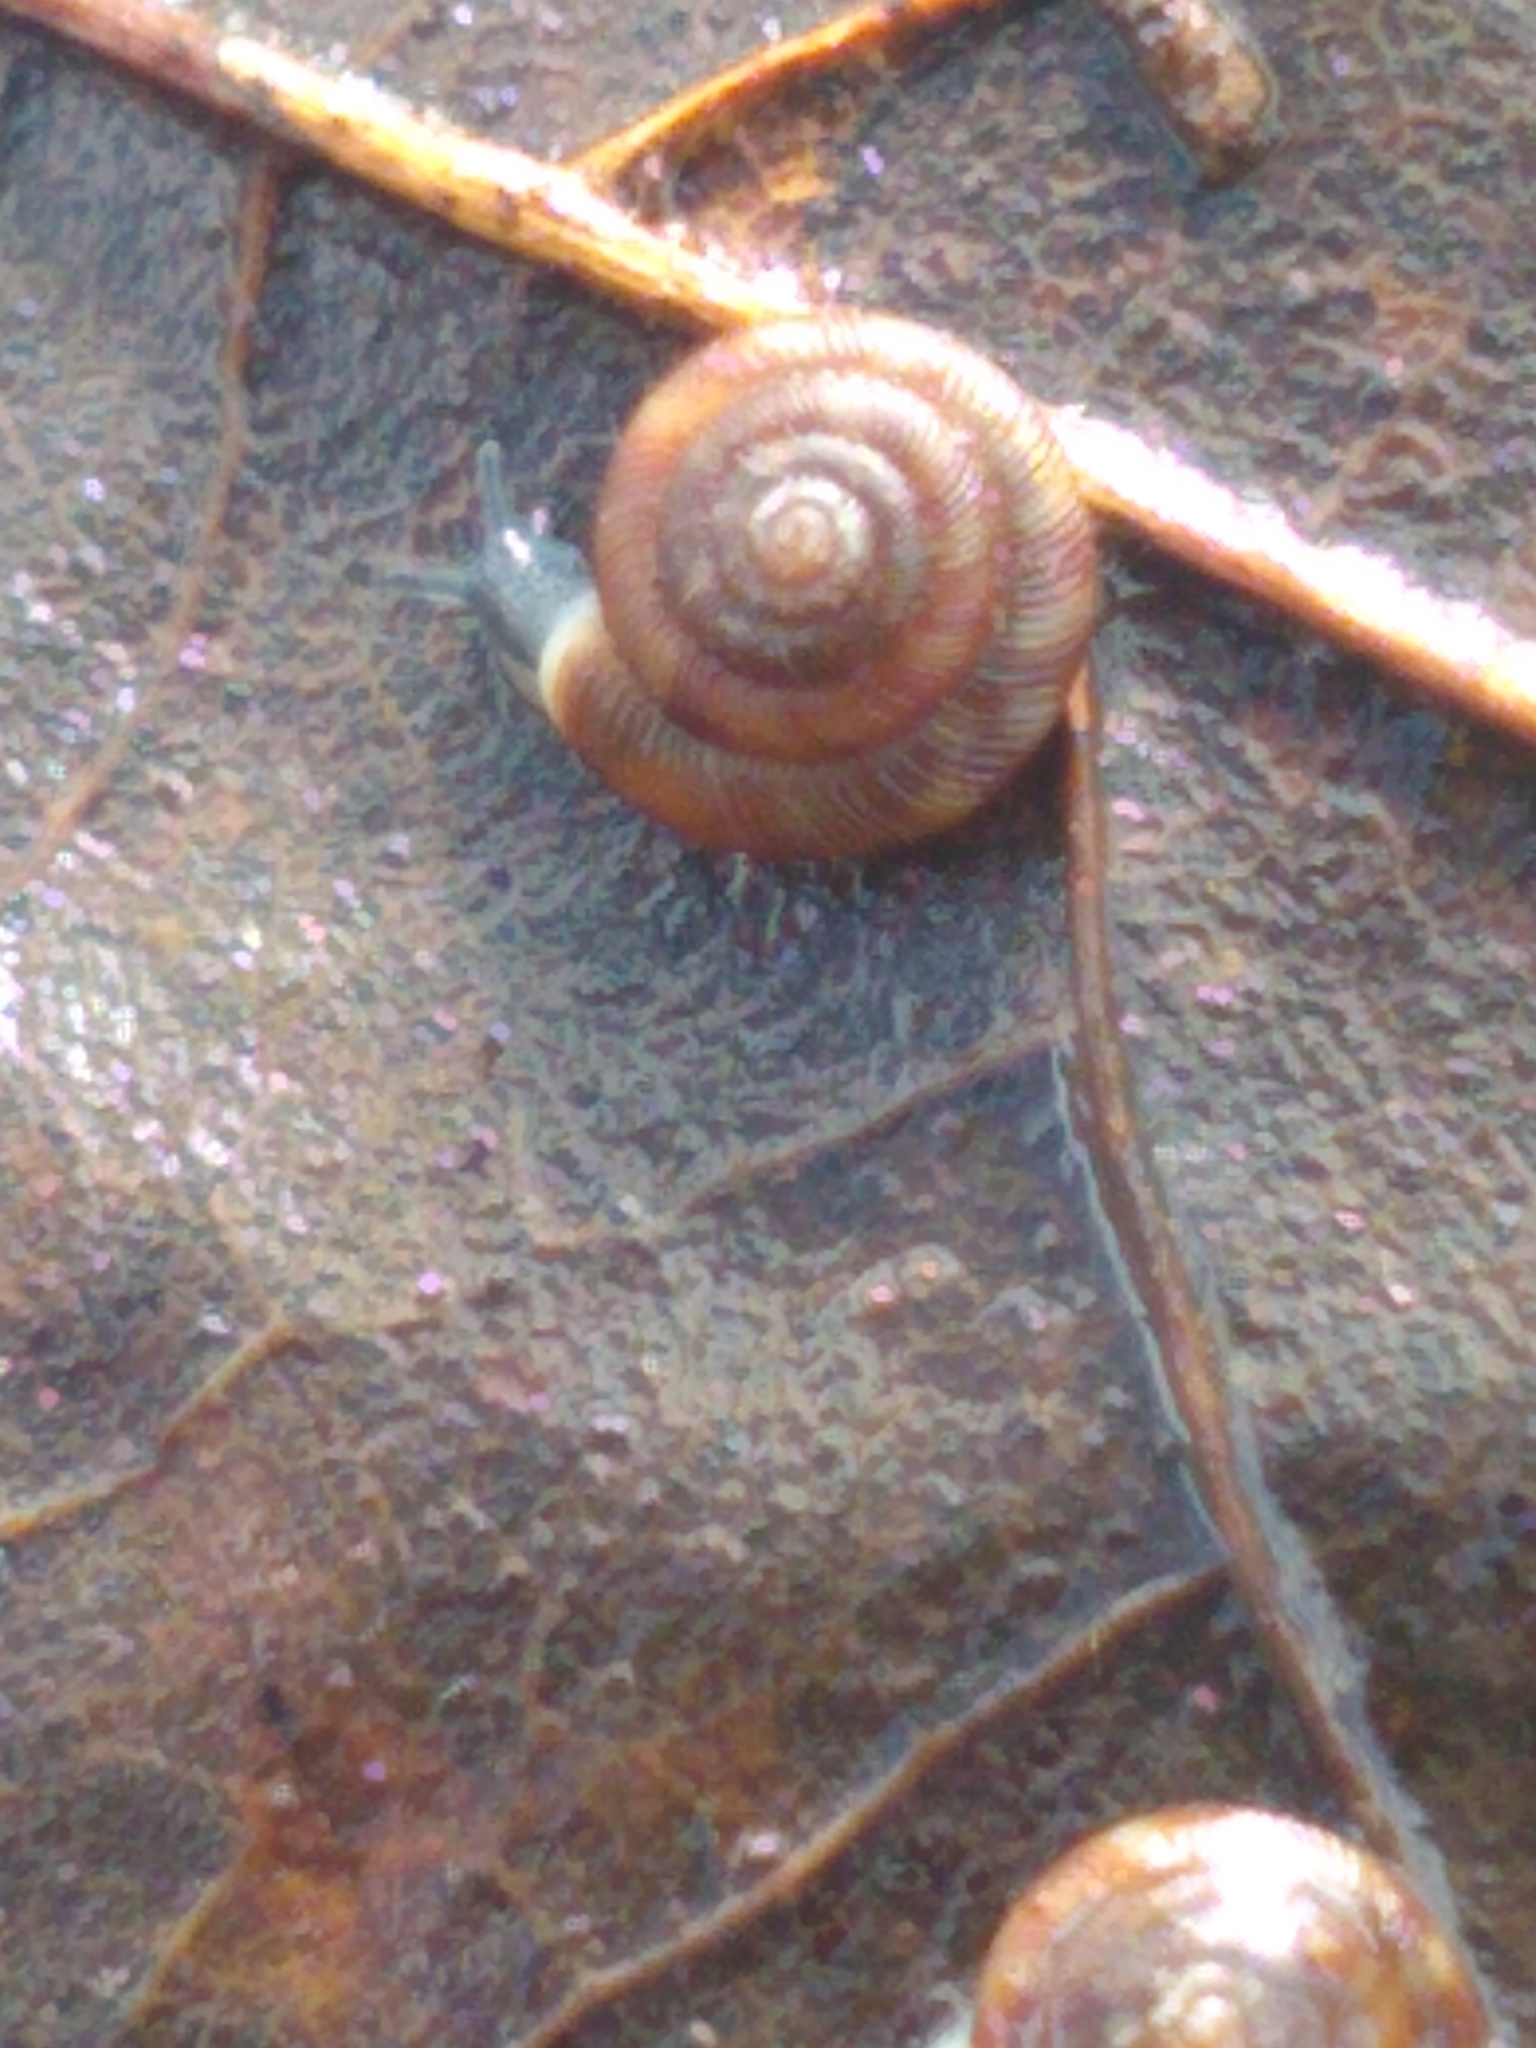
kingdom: Animalia
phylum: Mollusca
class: Gastropoda
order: Stylommatophora
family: Discidae
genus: Discus
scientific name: Discus rotundatus
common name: Rounded snail
